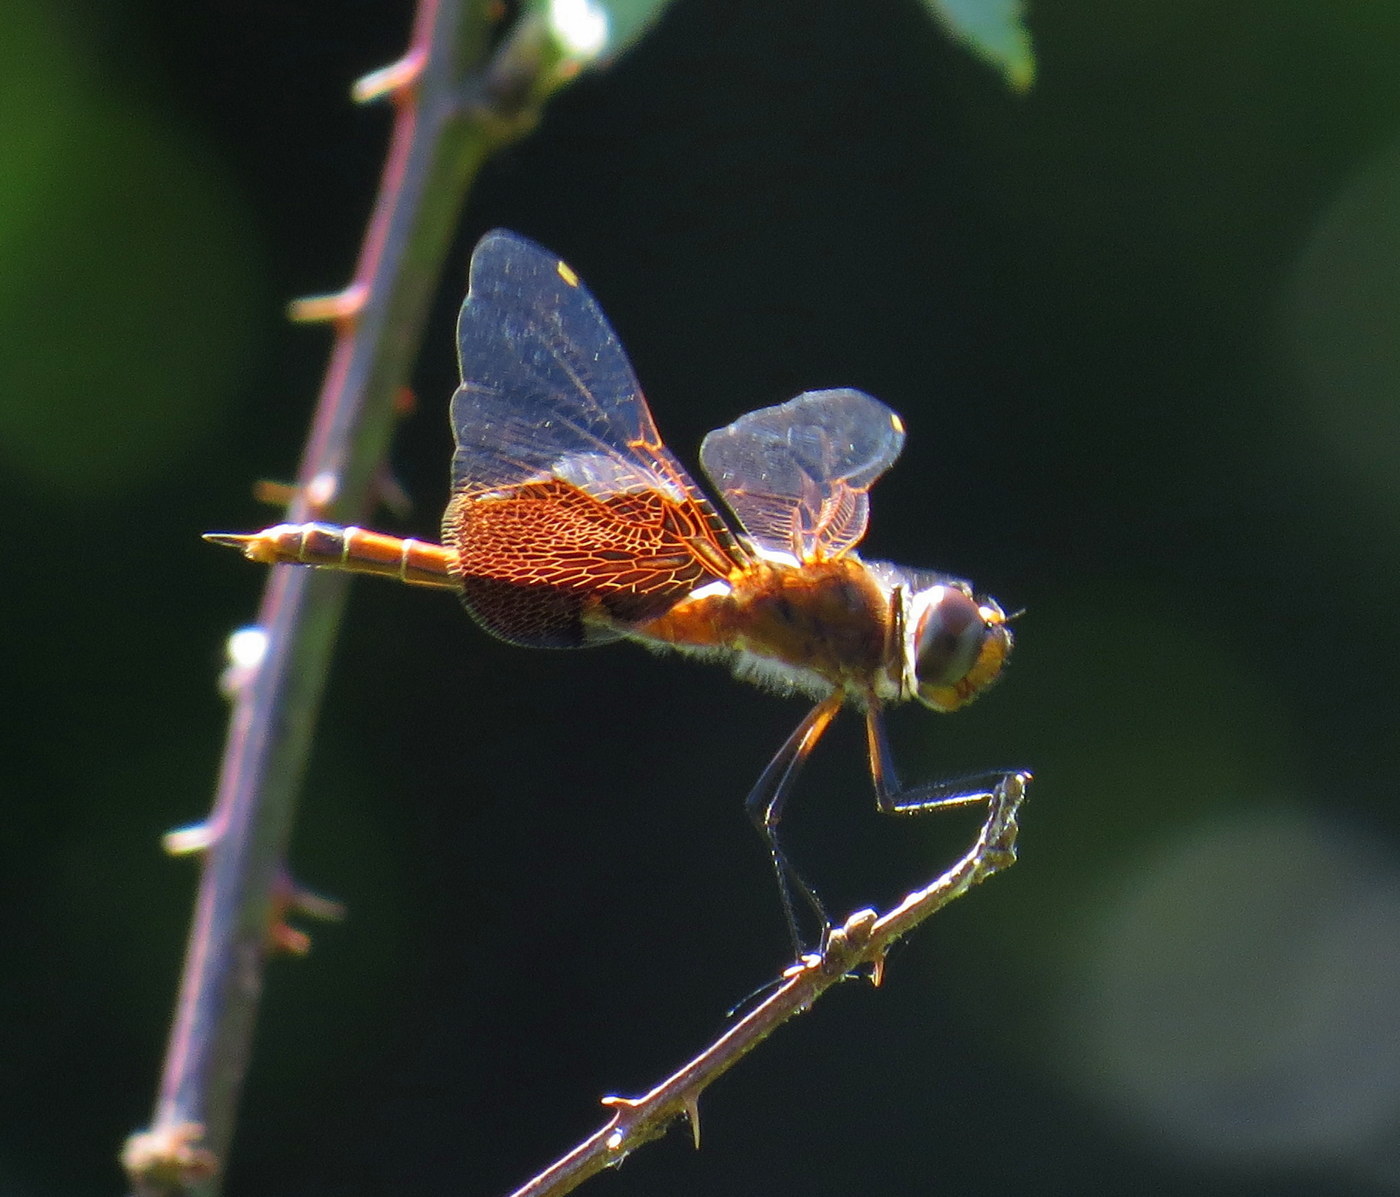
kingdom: Animalia
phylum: Arthropoda
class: Insecta
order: Odonata
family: Libellulidae
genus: Tramea
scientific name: Tramea carolina
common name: Carolina saddlebags
